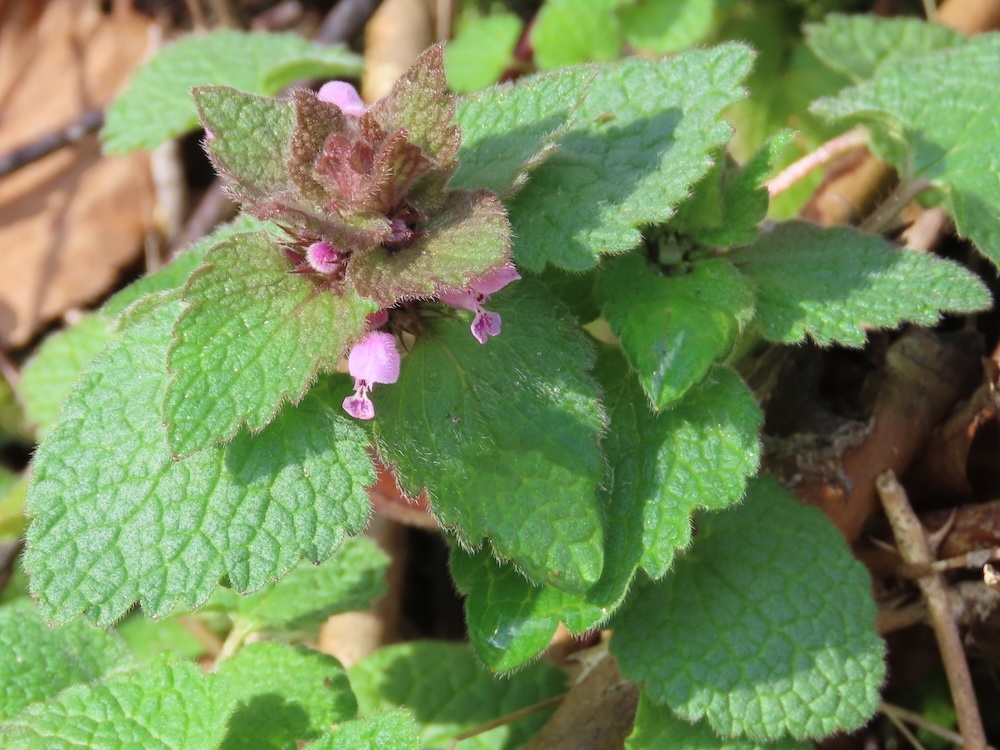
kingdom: Plantae
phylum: Tracheophyta
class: Magnoliopsida
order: Lamiales
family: Lamiaceae
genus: Lamium
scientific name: Lamium purpureum
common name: Red dead-nettle
